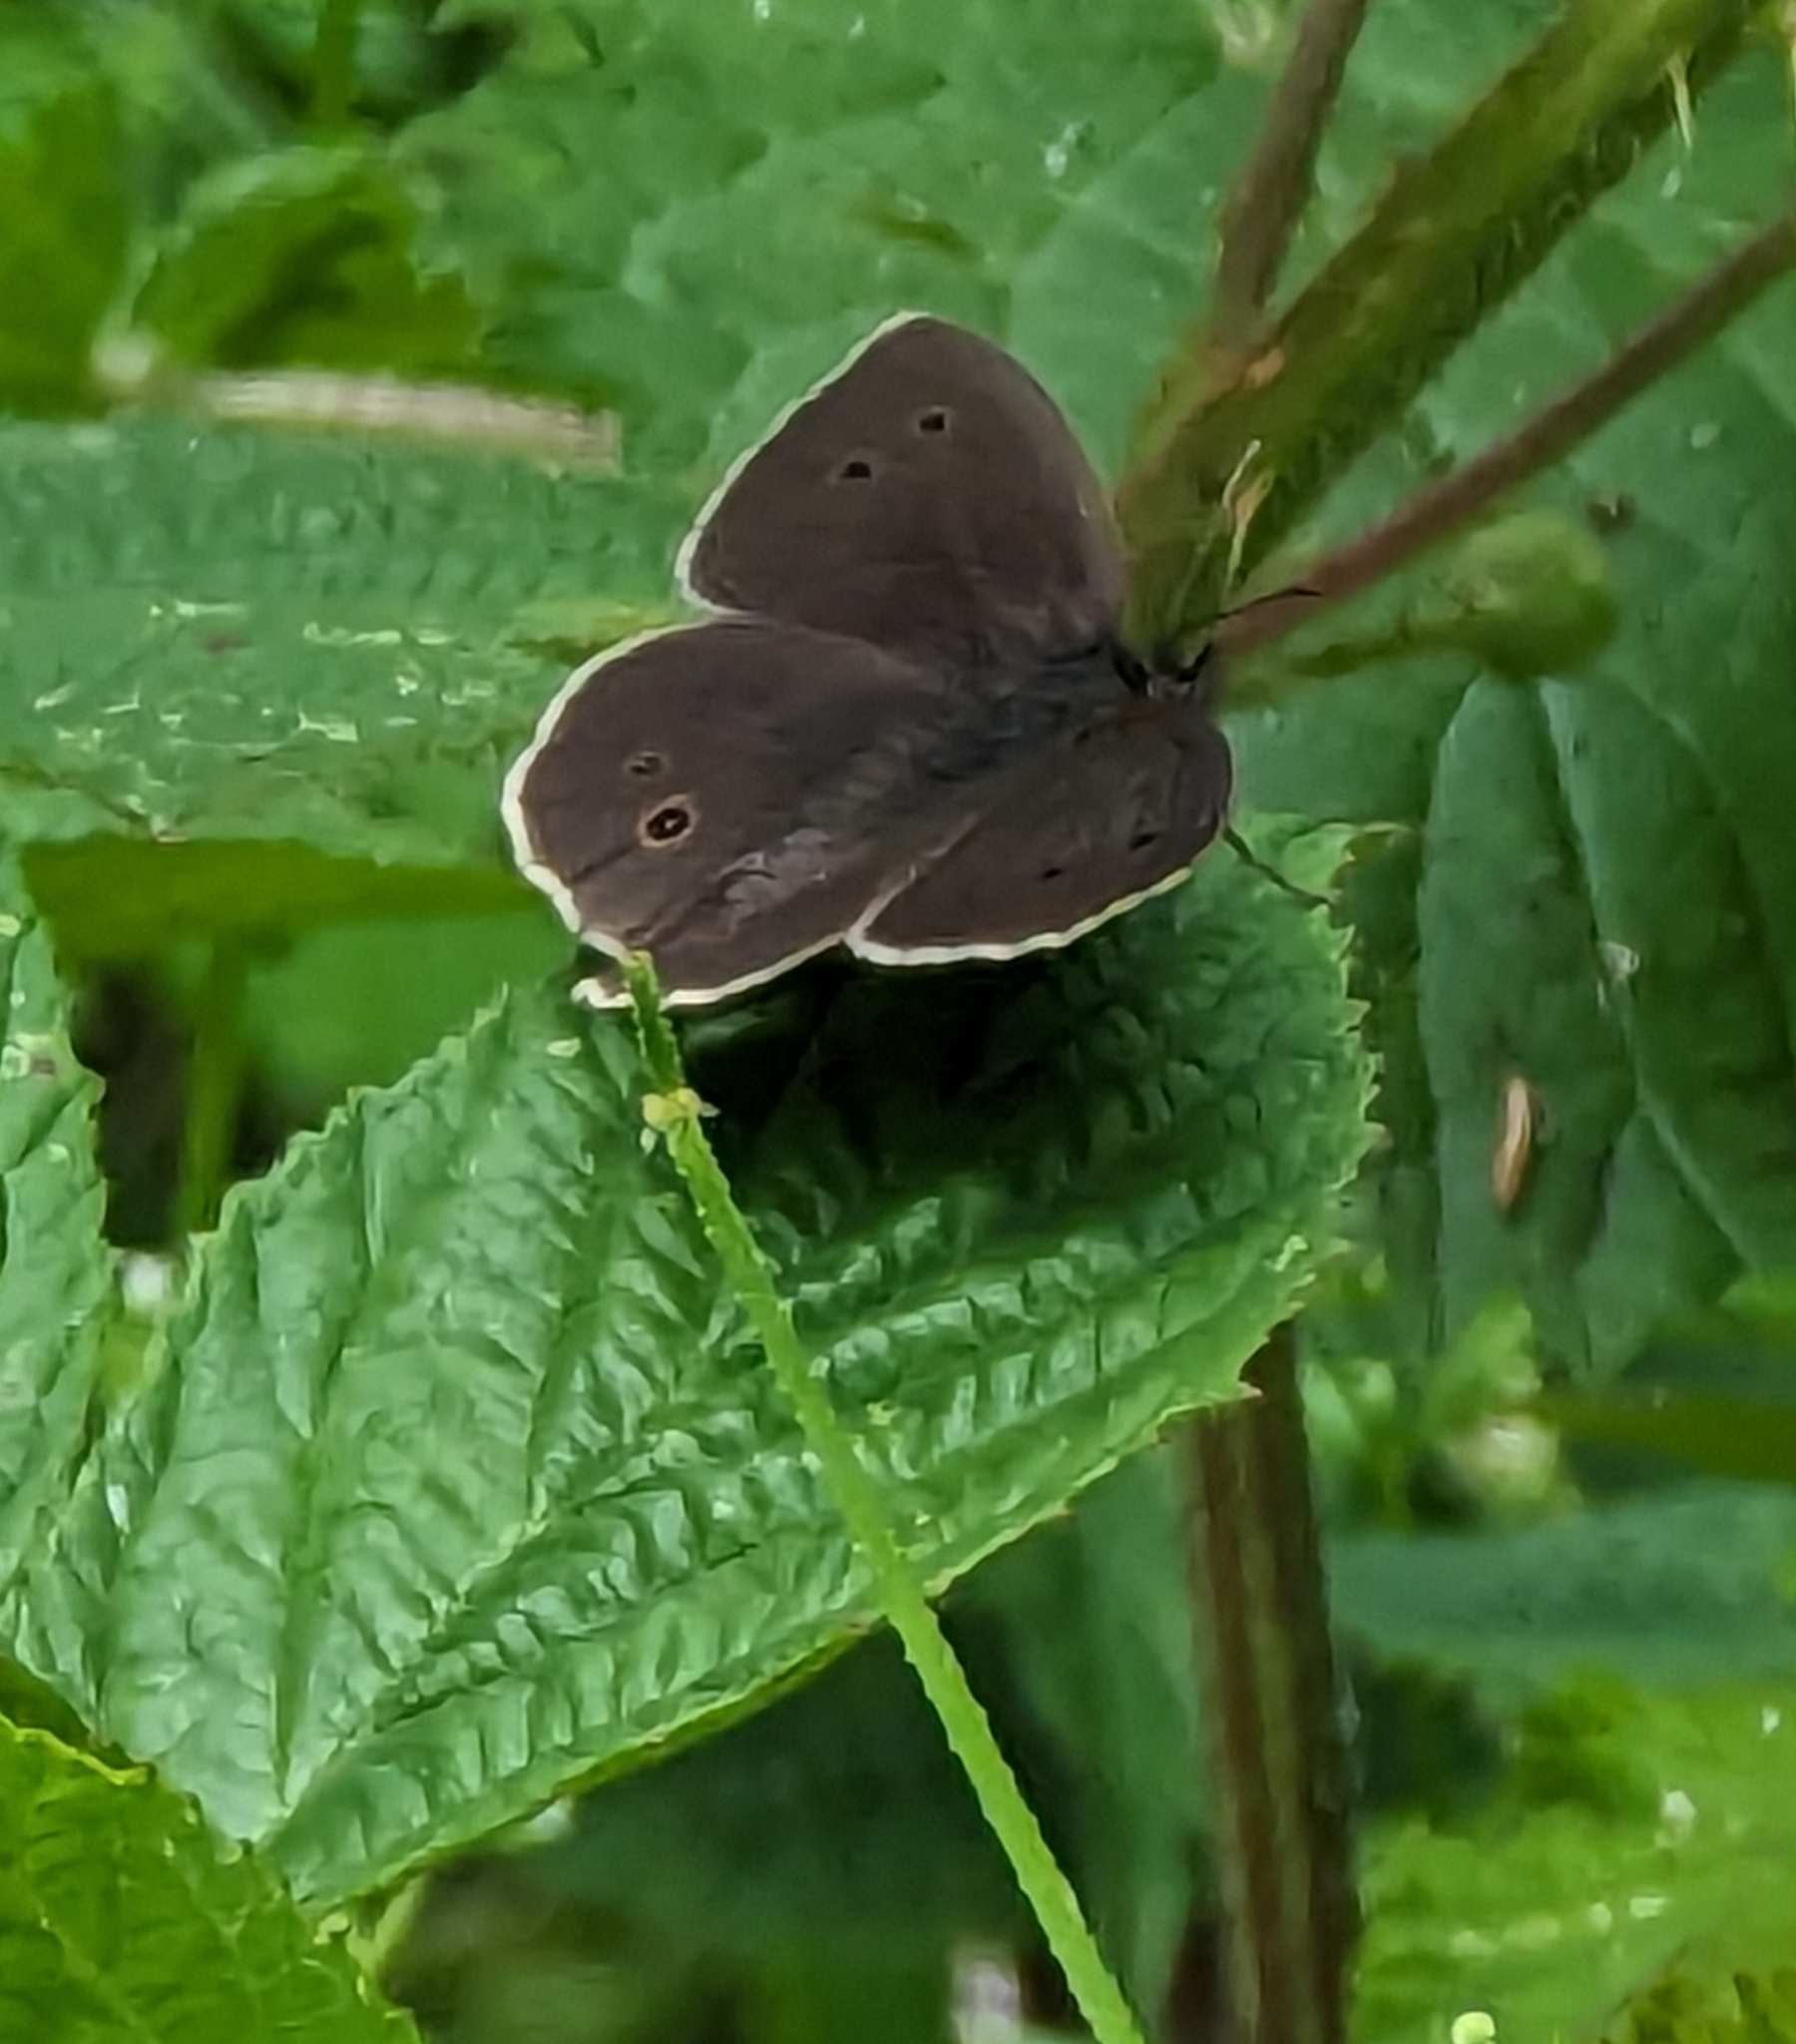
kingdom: Animalia
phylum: Arthropoda
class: Insecta
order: Lepidoptera
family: Nymphalidae
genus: Aphantopus
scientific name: Aphantopus hyperantus
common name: Ringlet
